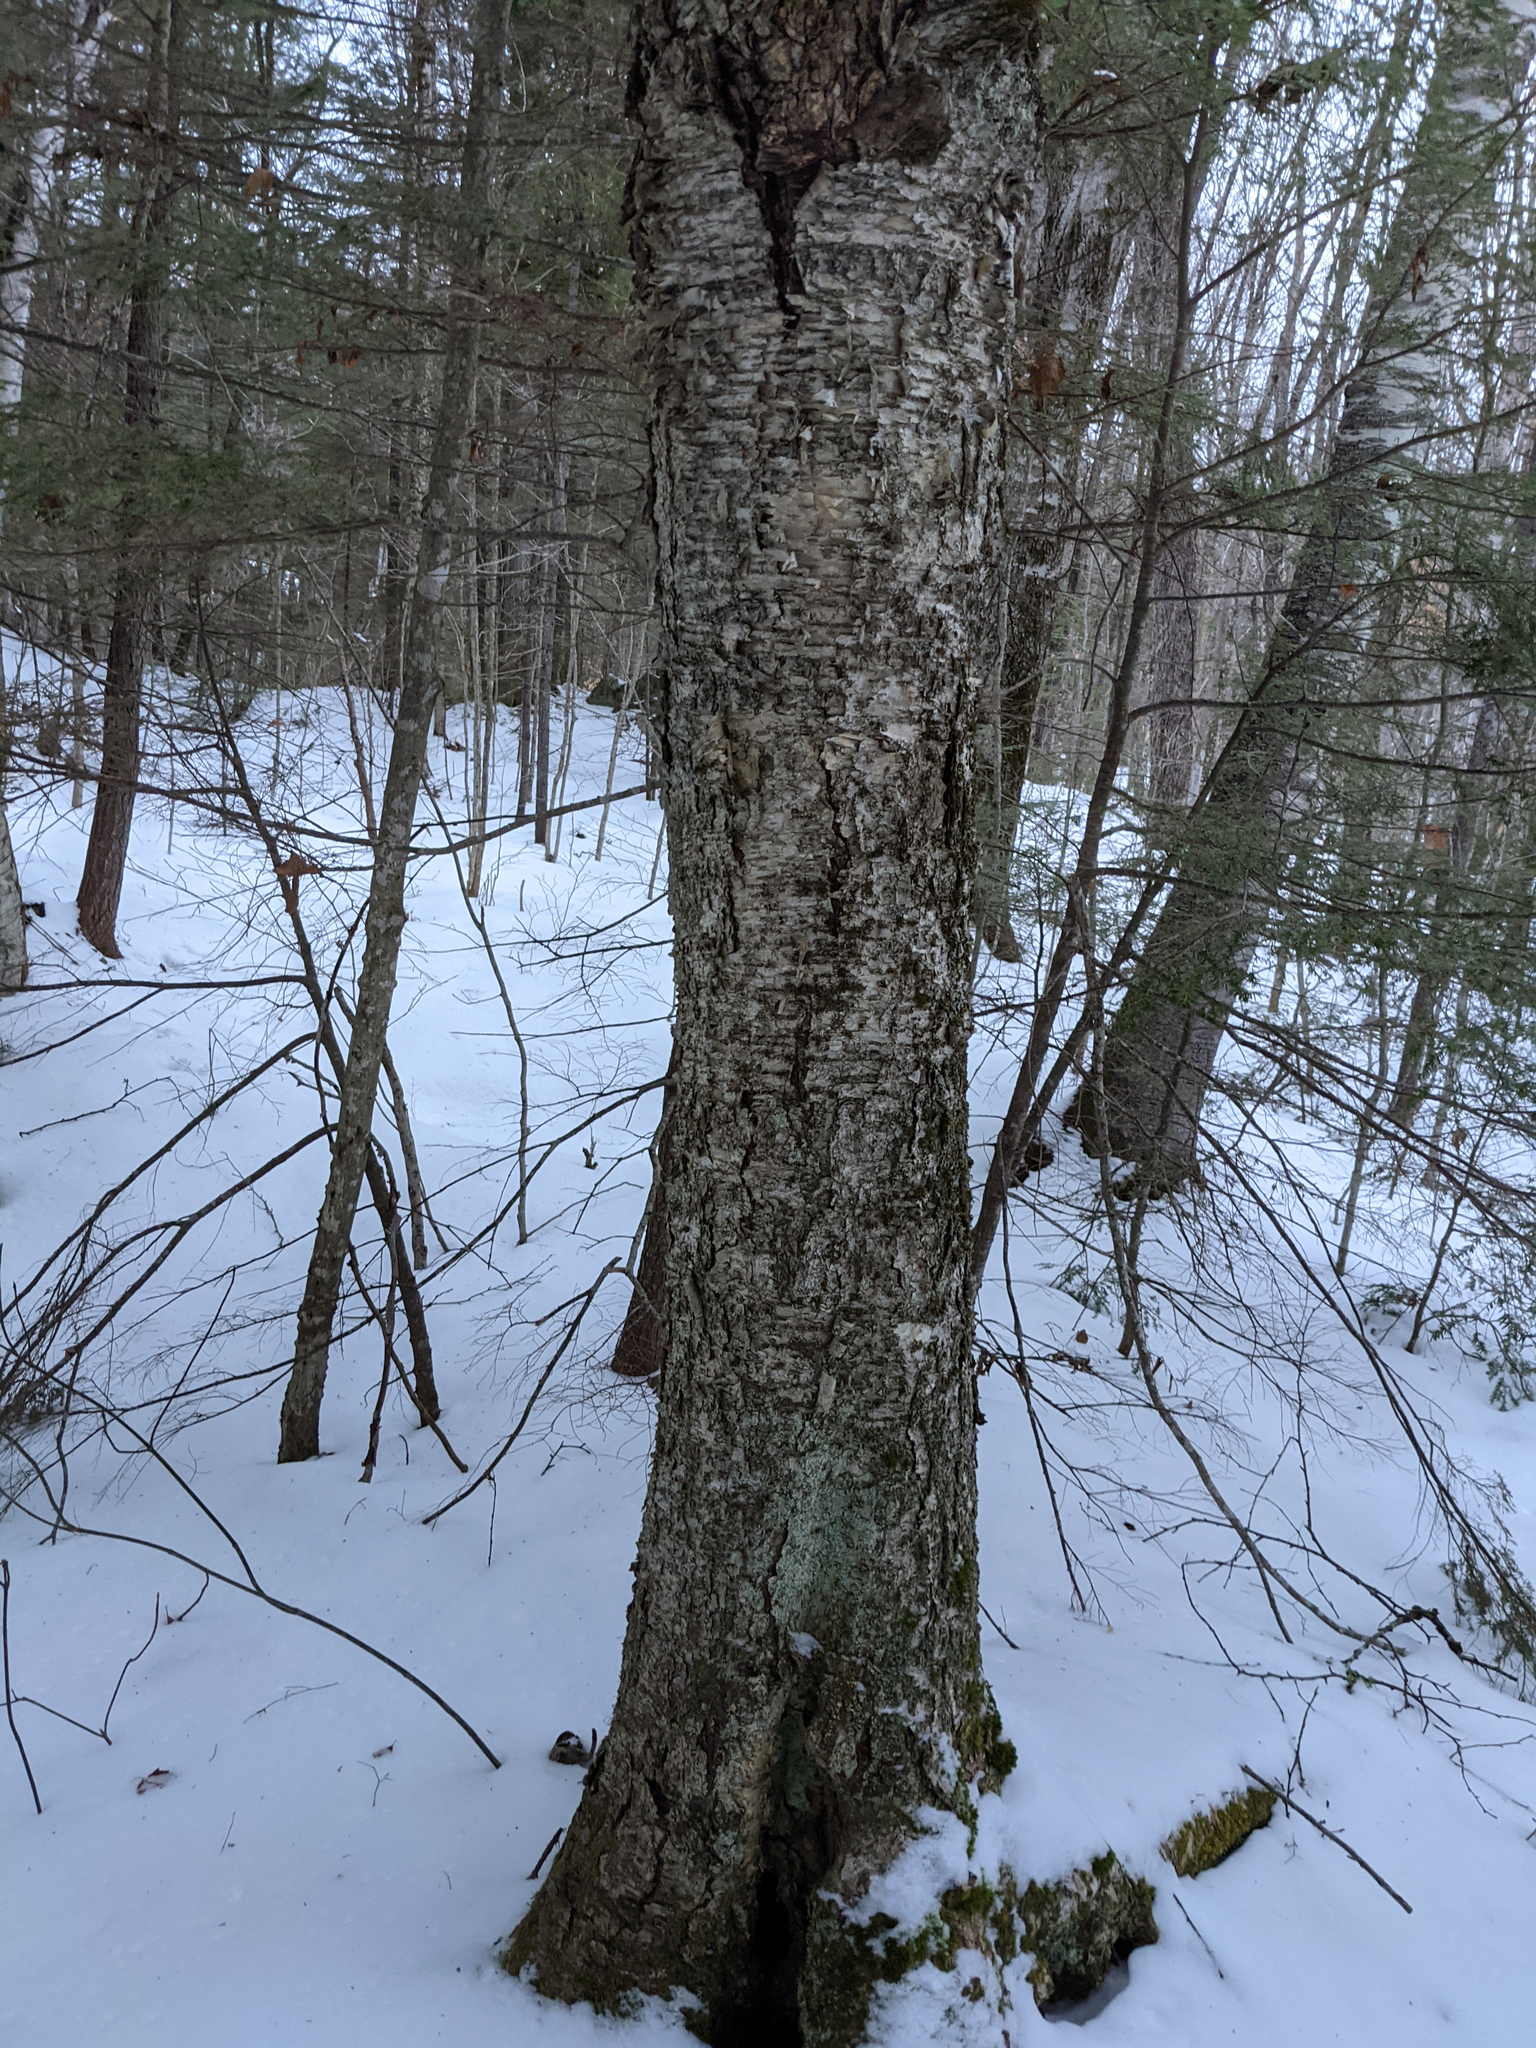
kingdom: Plantae
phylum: Tracheophyta
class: Magnoliopsida
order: Fagales
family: Betulaceae
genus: Betula
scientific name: Betula alleghaniensis
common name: Yellow birch
